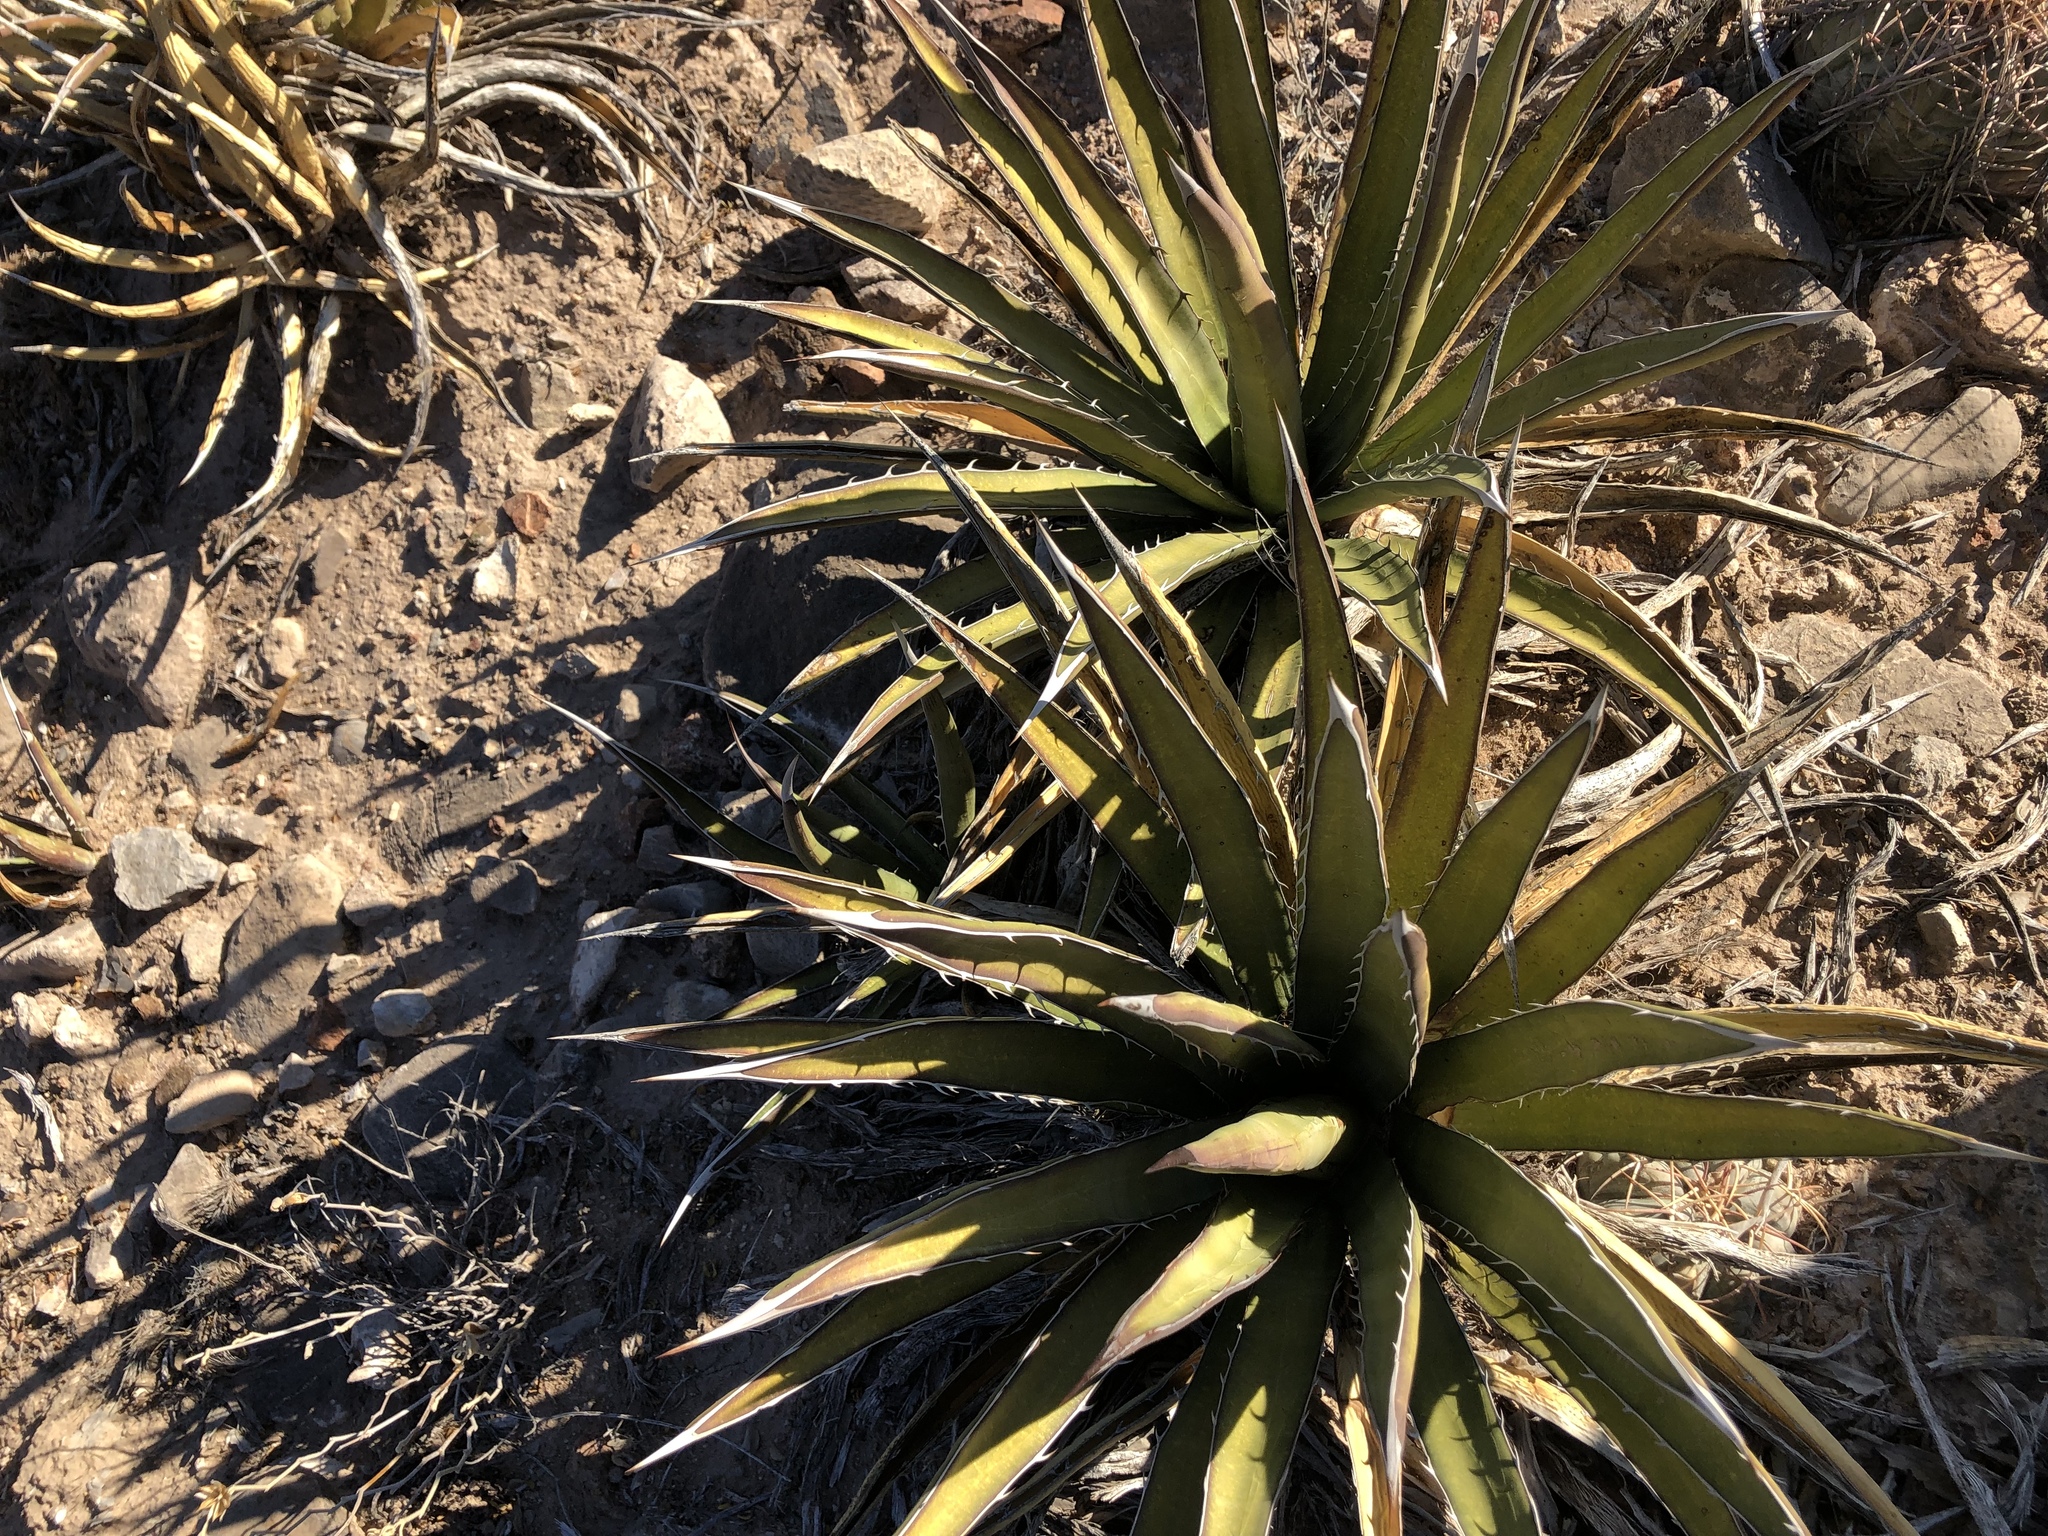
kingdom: Plantae
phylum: Tracheophyta
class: Liliopsida
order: Asparagales
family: Asparagaceae
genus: Agave
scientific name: Agave lechuguilla
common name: Lecheguilla agave
